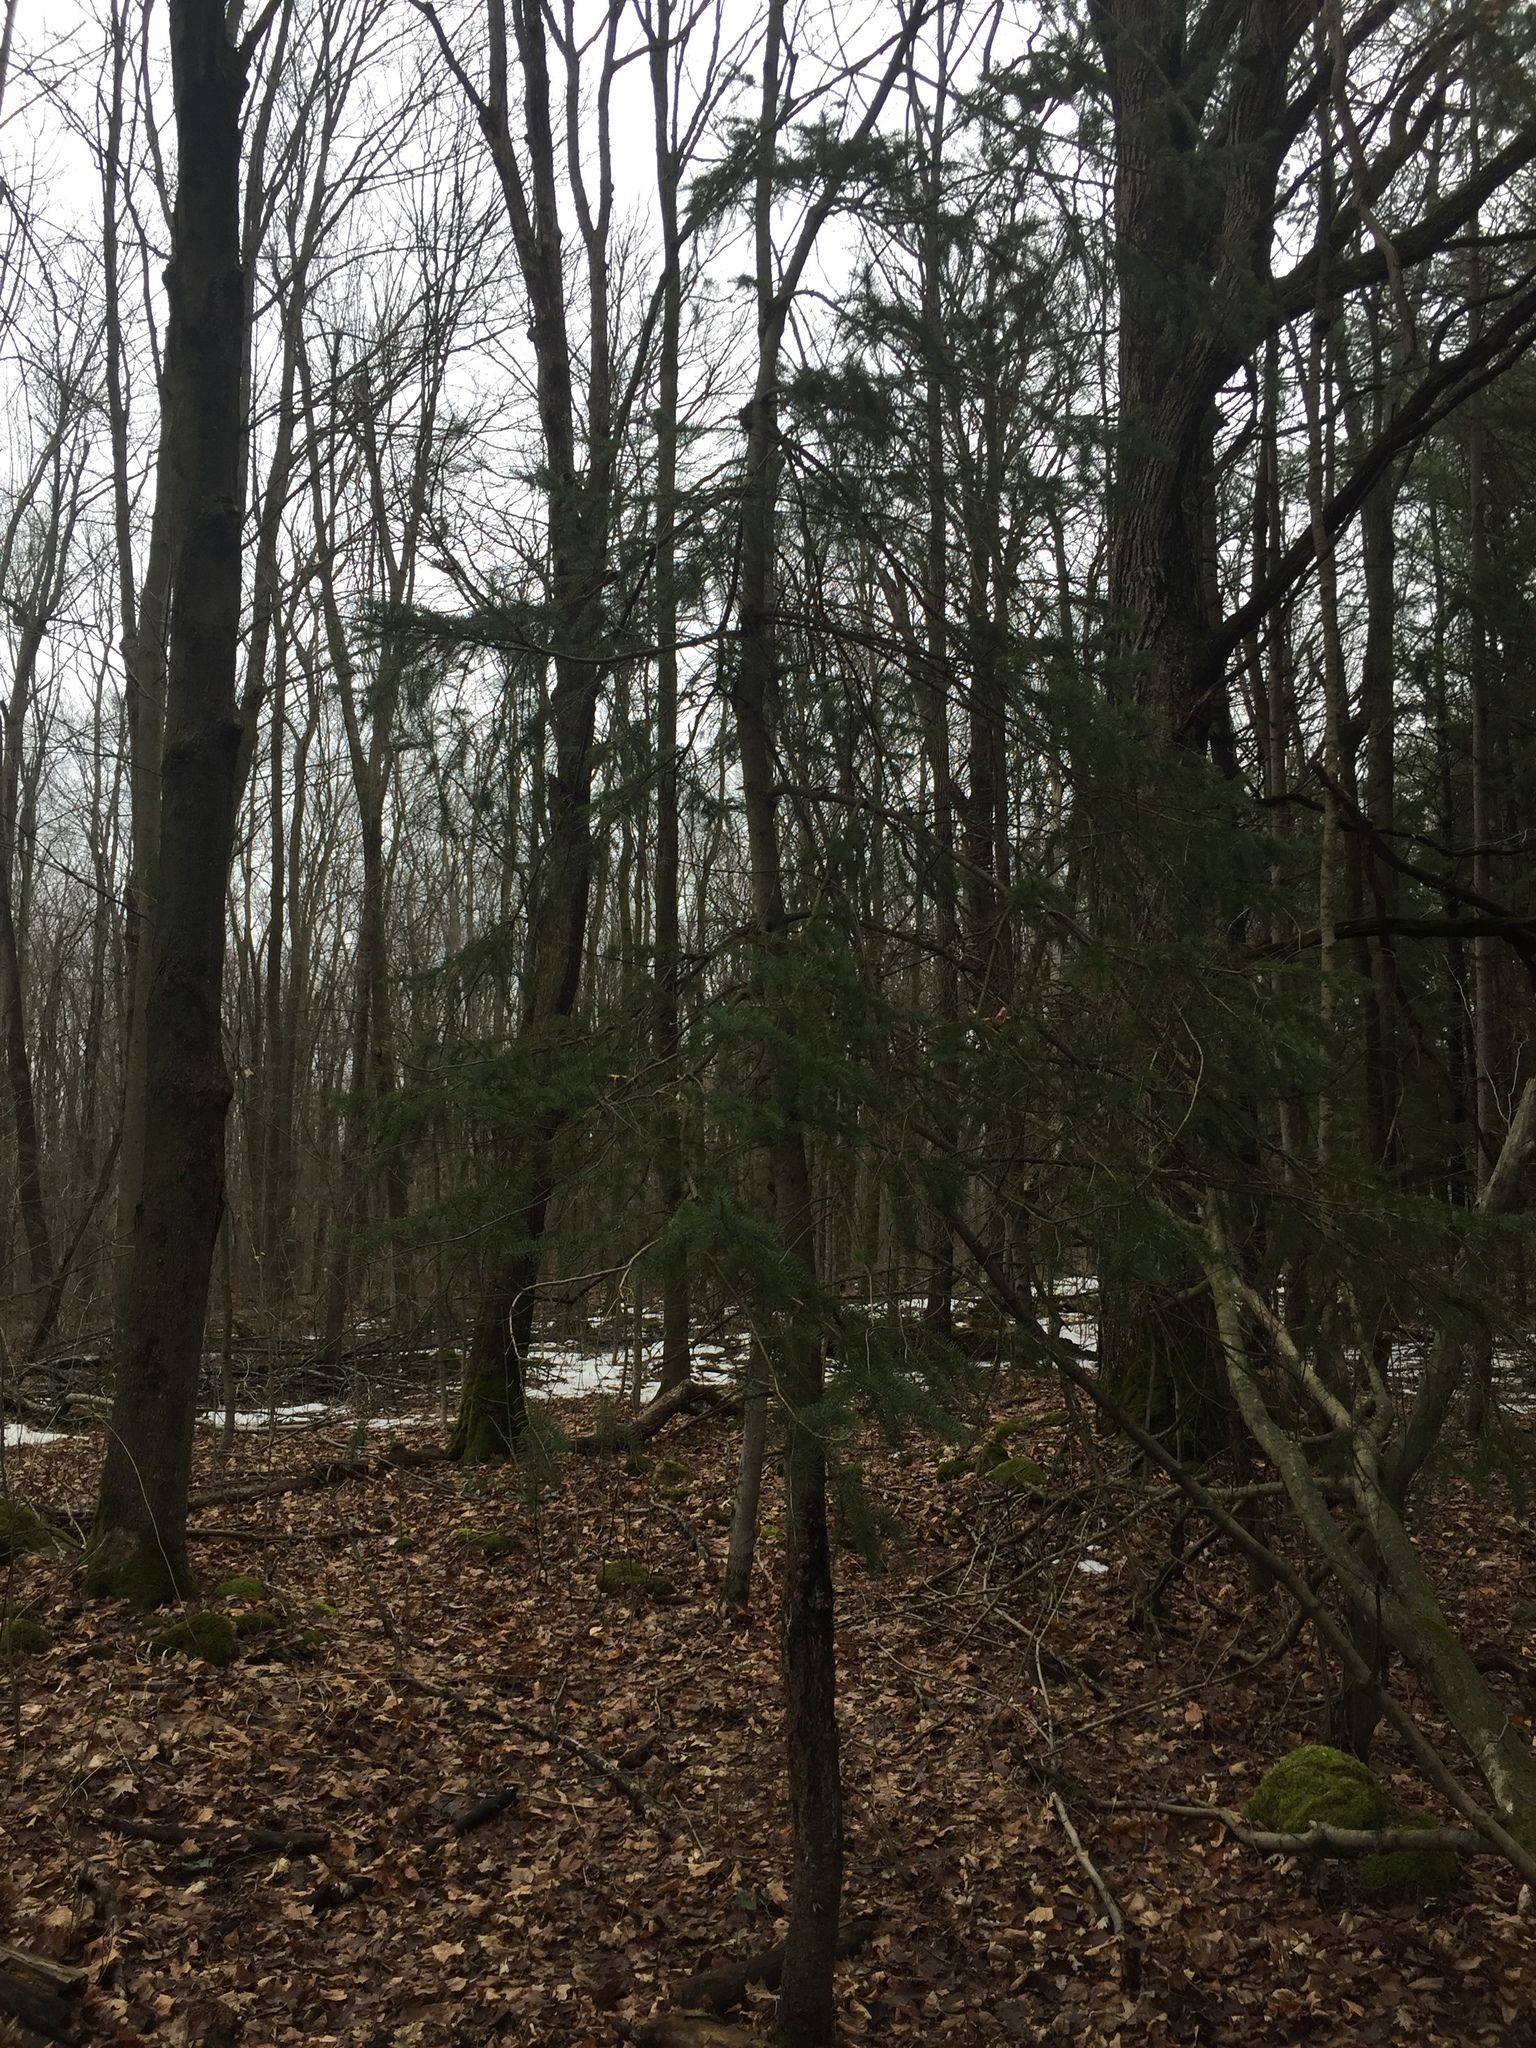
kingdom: Plantae
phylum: Tracheophyta
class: Pinopsida
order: Pinales
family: Pinaceae
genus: Picea
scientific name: Picea glauca
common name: White spruce
